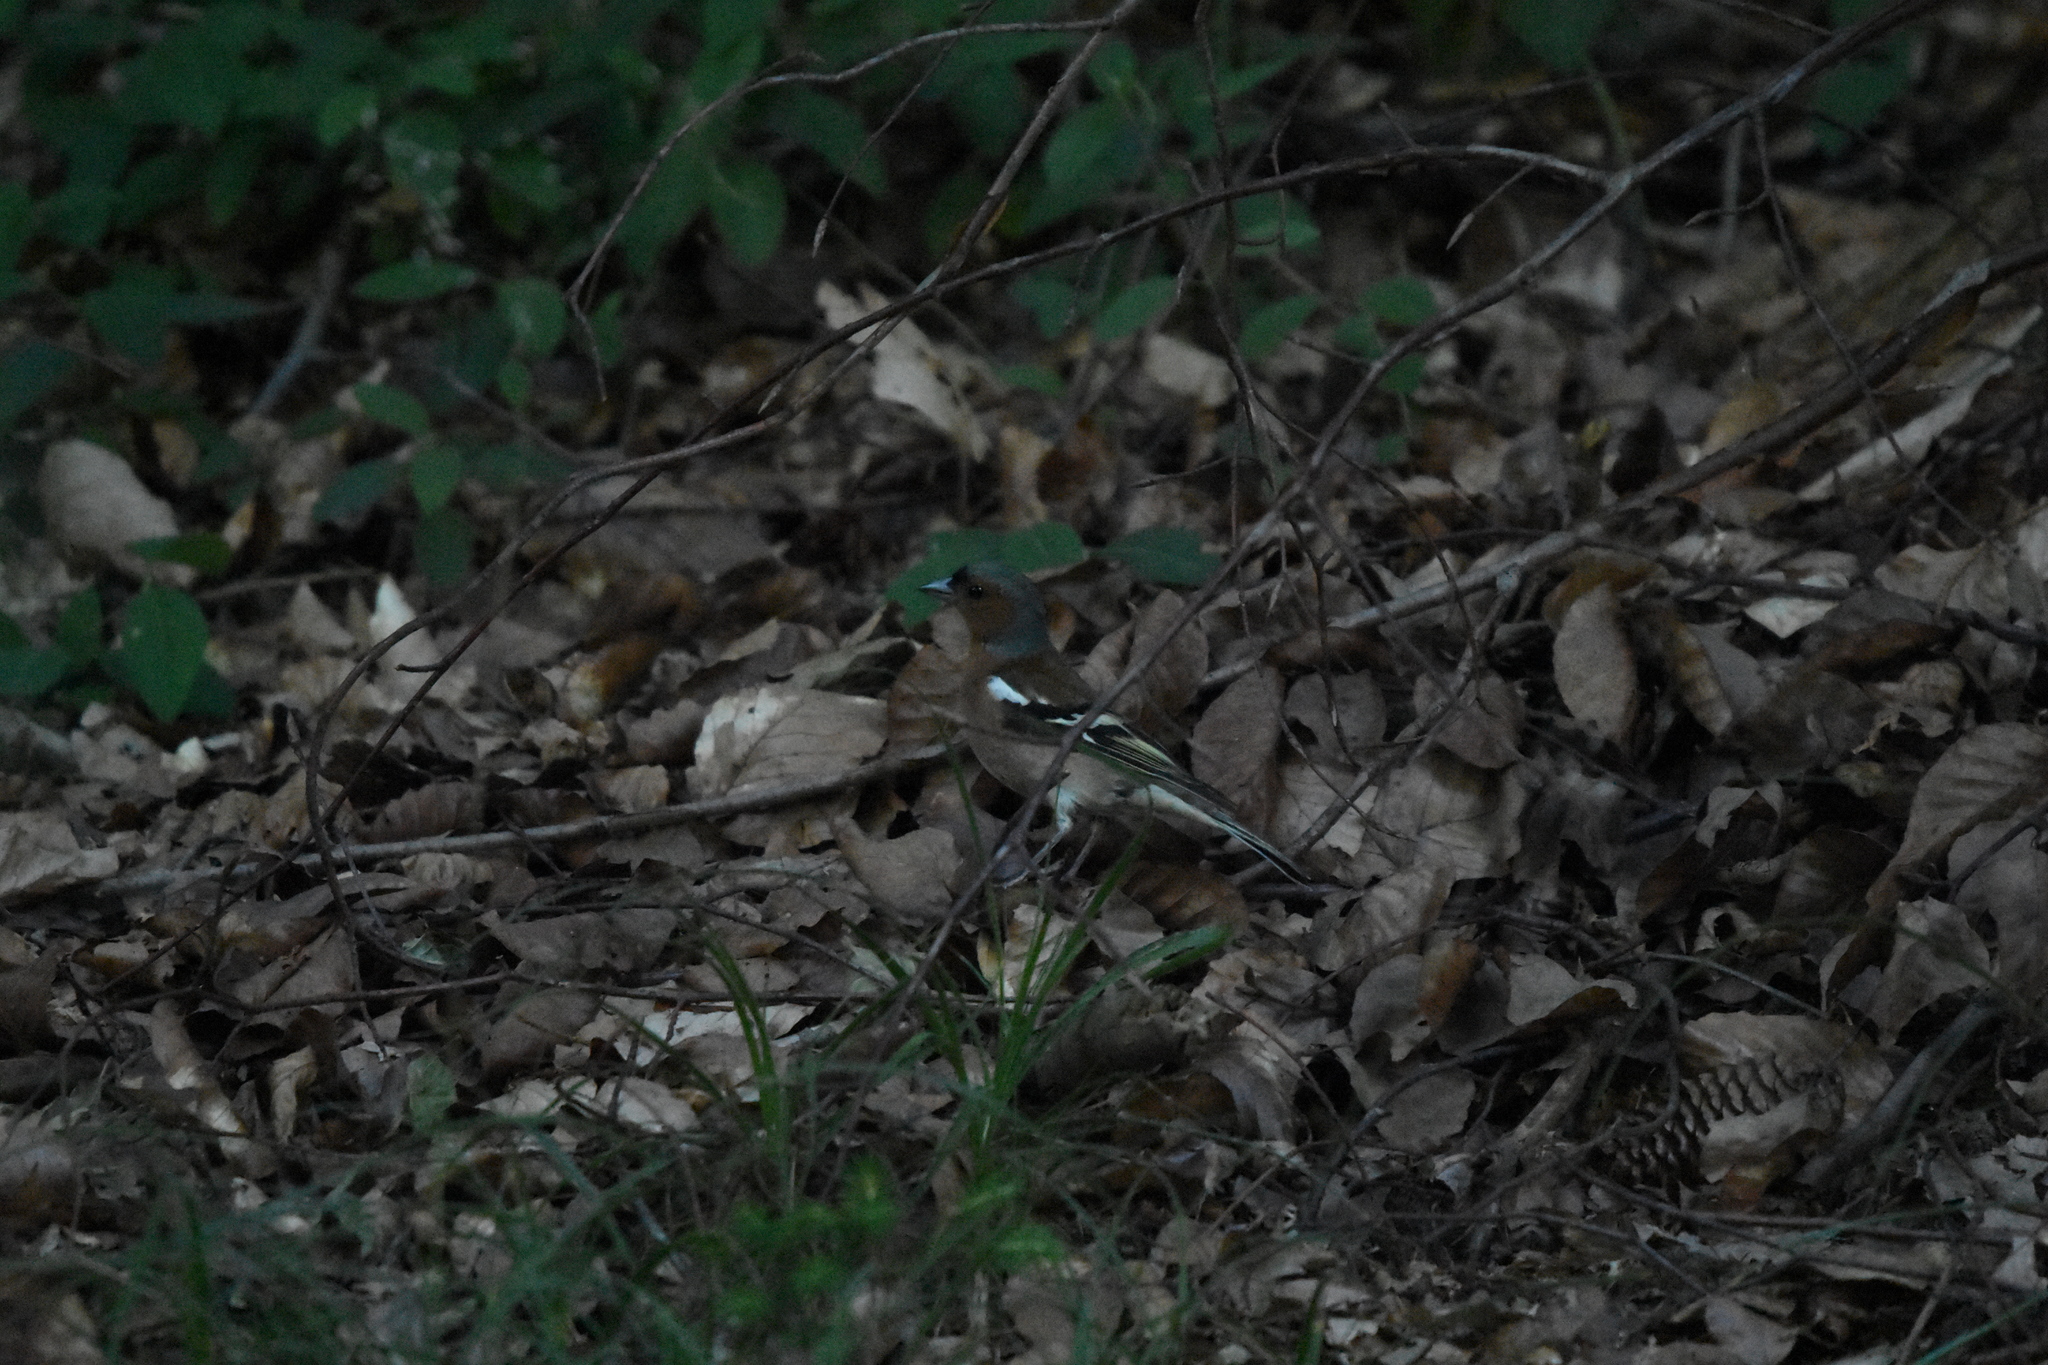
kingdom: Animalia
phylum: Chordata
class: Aves
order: Passeriformes
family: Fringillidae
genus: Fringilla
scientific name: Fringilla coelebs
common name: Common chaffinch
